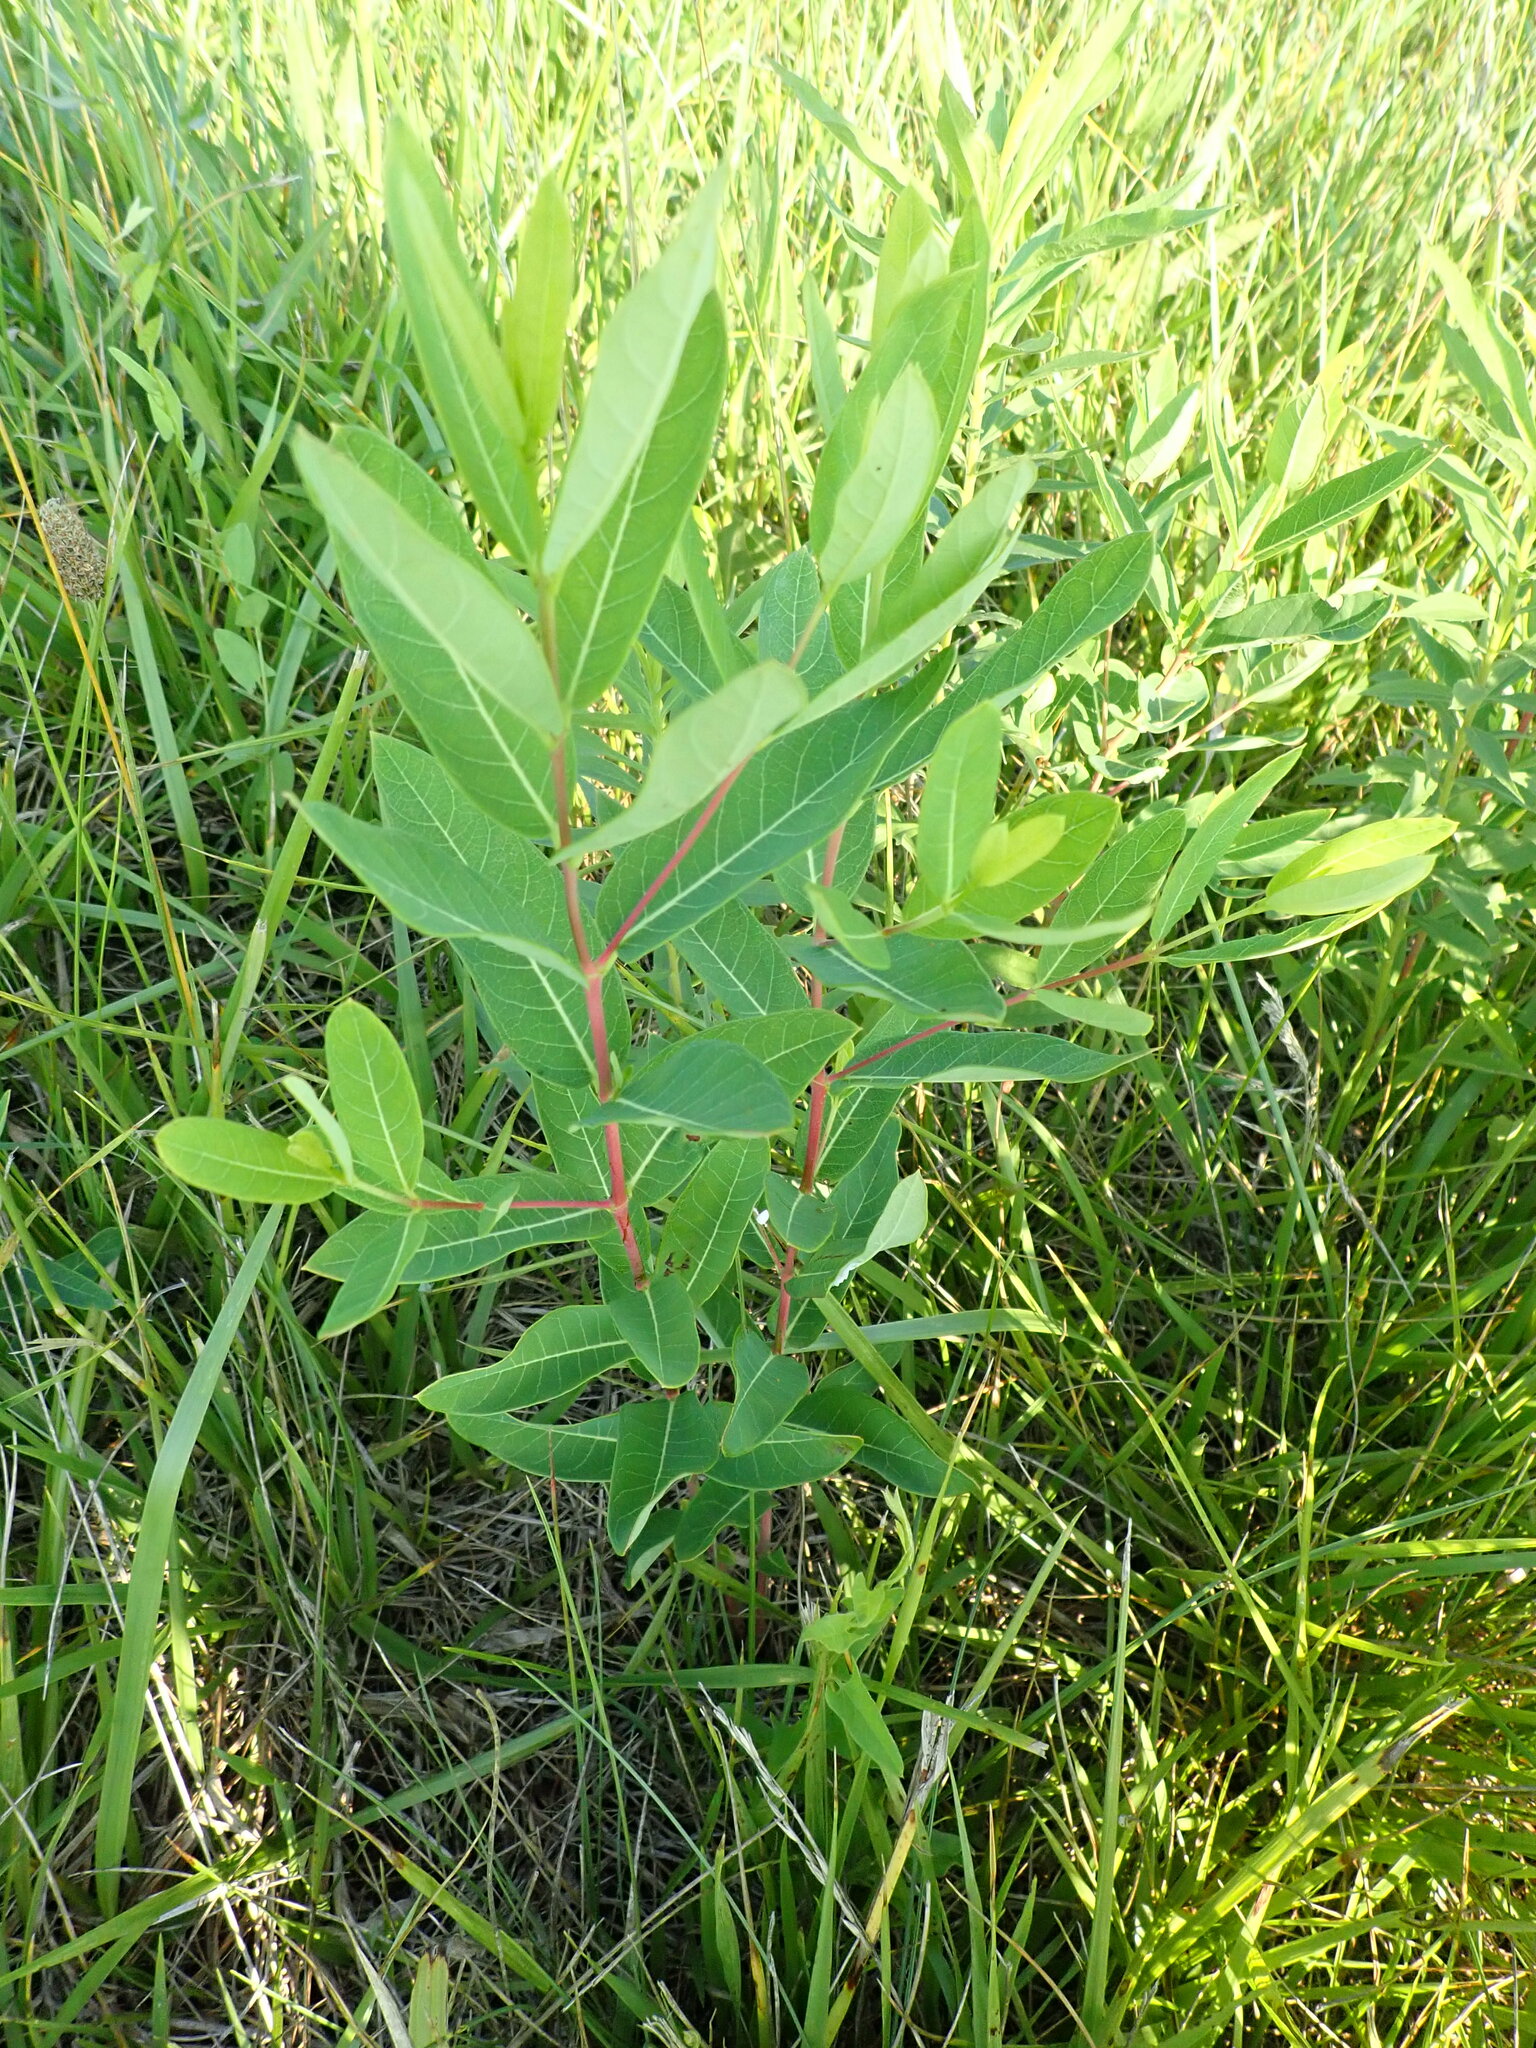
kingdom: Plantae
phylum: Tracheophyta
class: Magnoliopsida
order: Gentianales
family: Apocynaceae
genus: Apocynum
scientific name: Apocynum cannabinum
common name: Hemp dogbane
